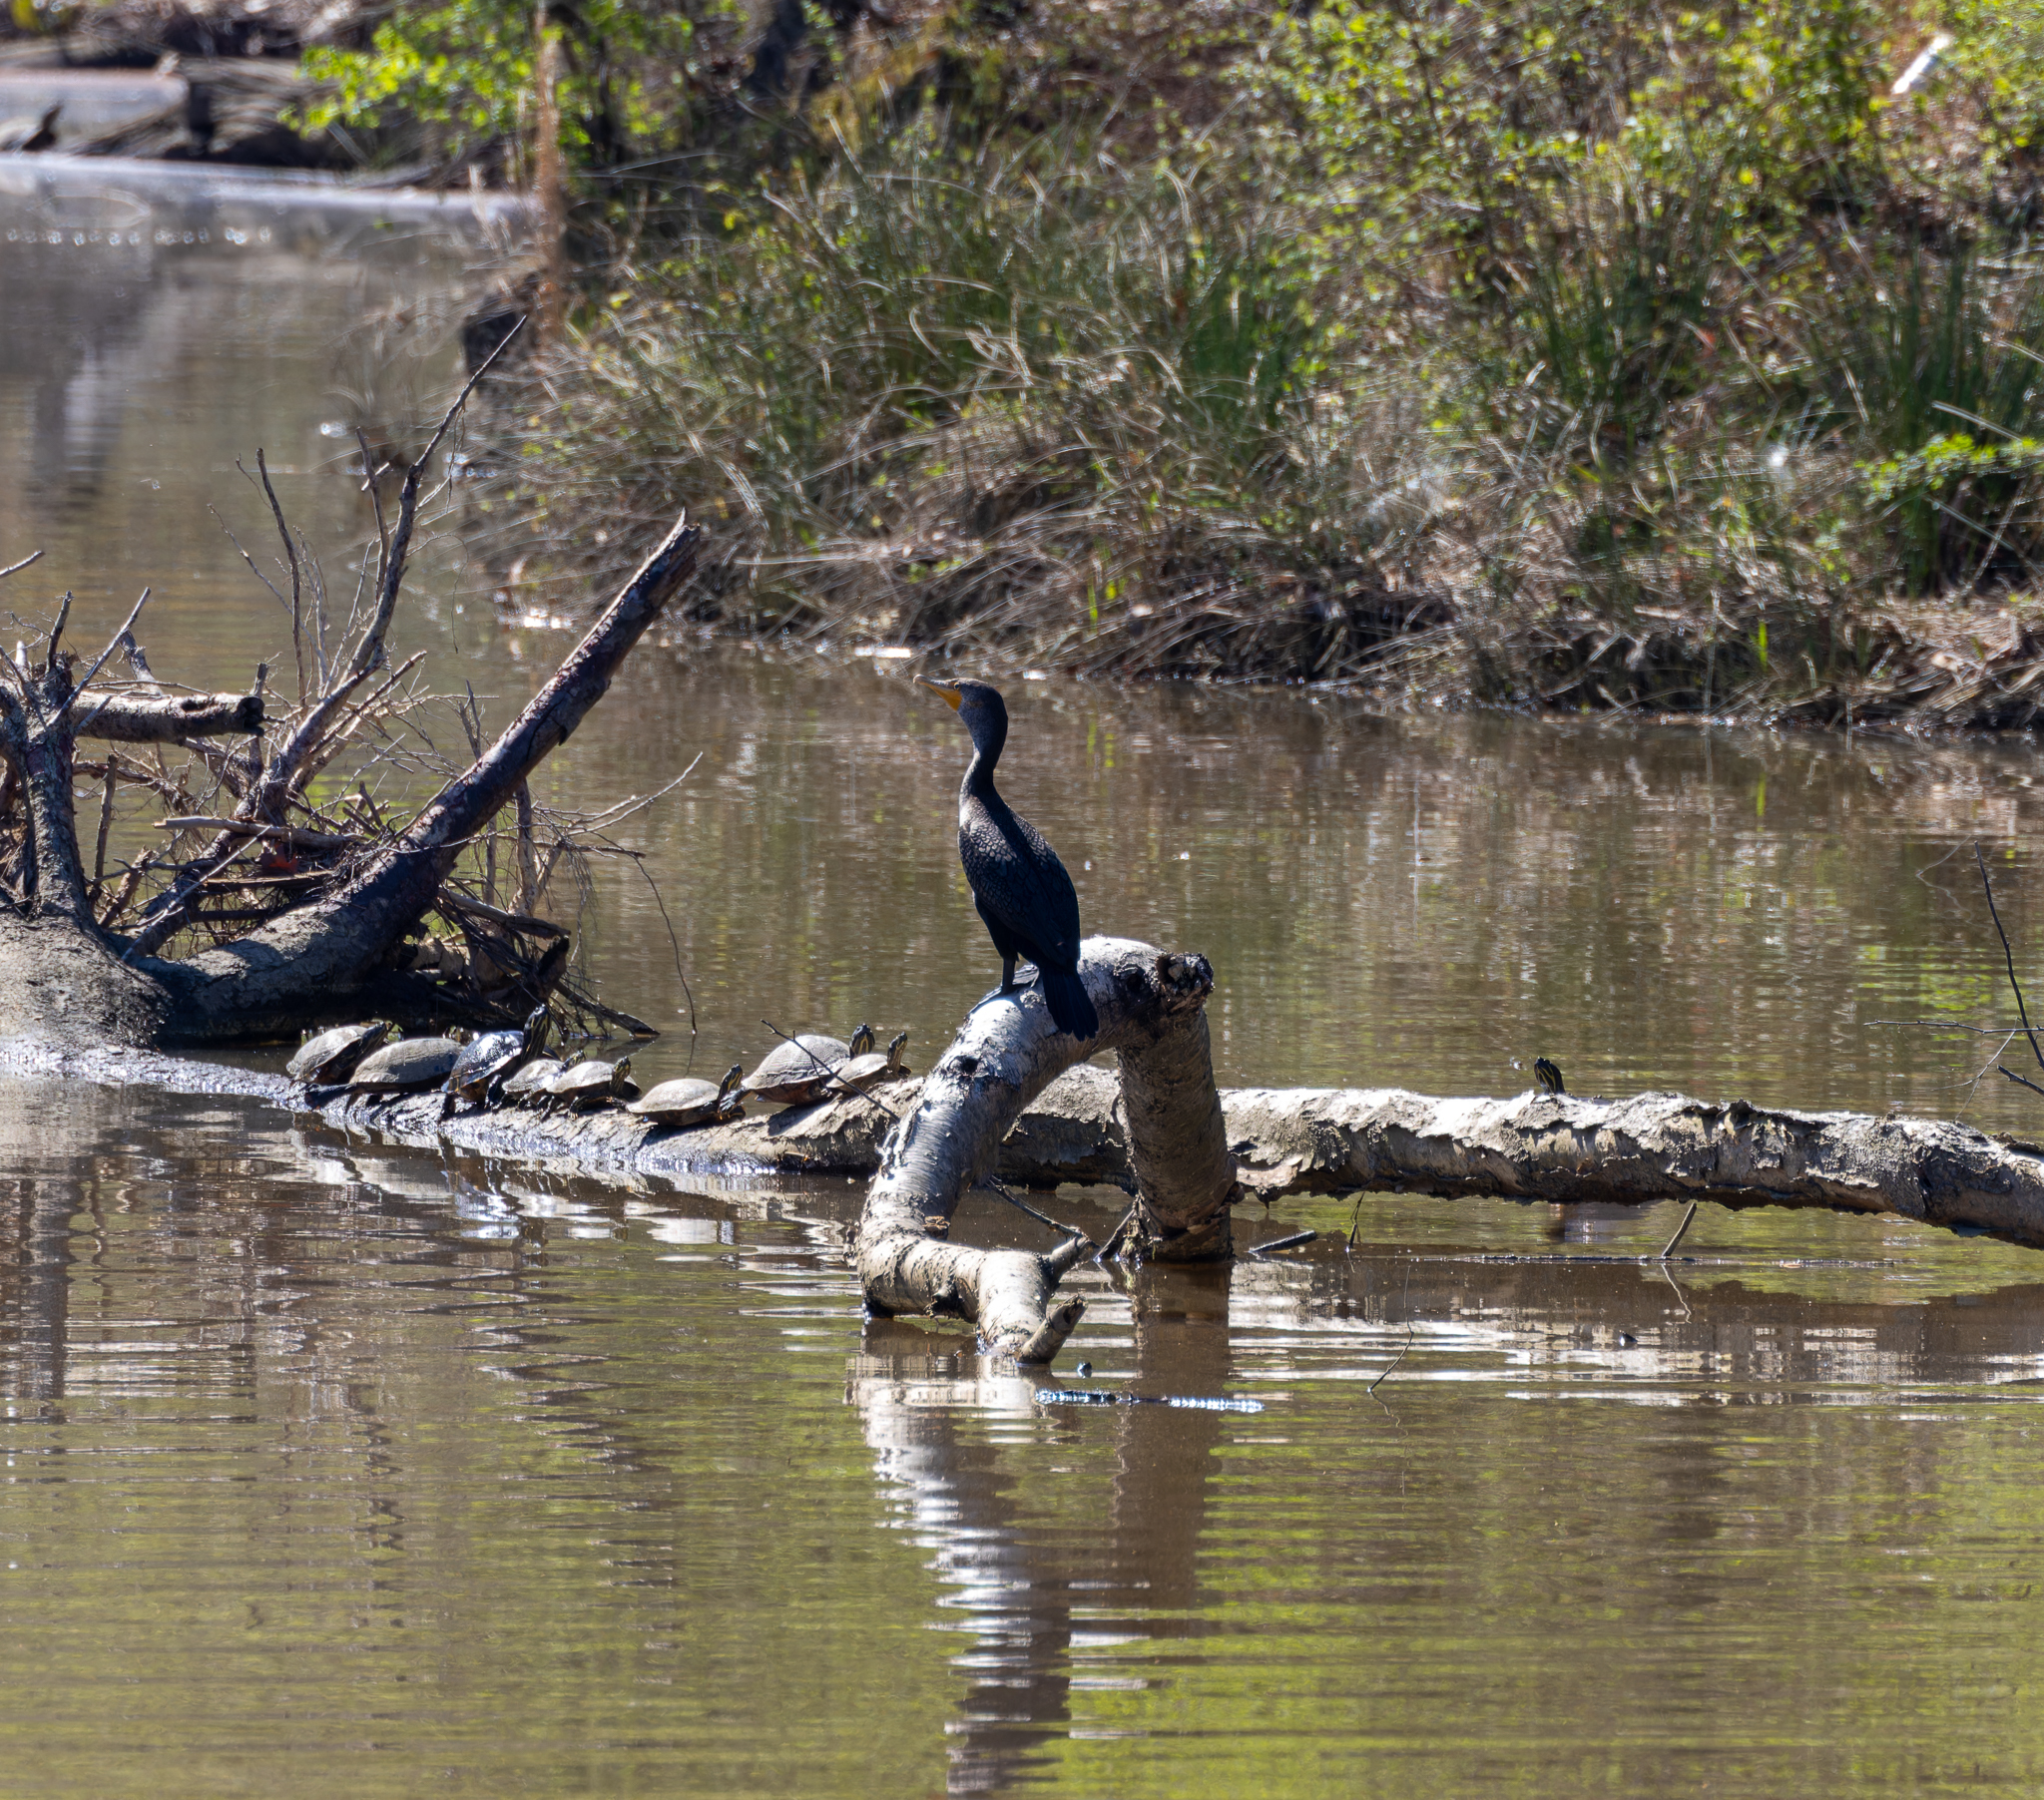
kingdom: Animalia
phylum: Chordata
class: Aves
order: Suliformes
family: Phalacrocoracidae
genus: Phalacrocorax
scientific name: Phalacrocorax auritus
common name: Double-crested cormorant
